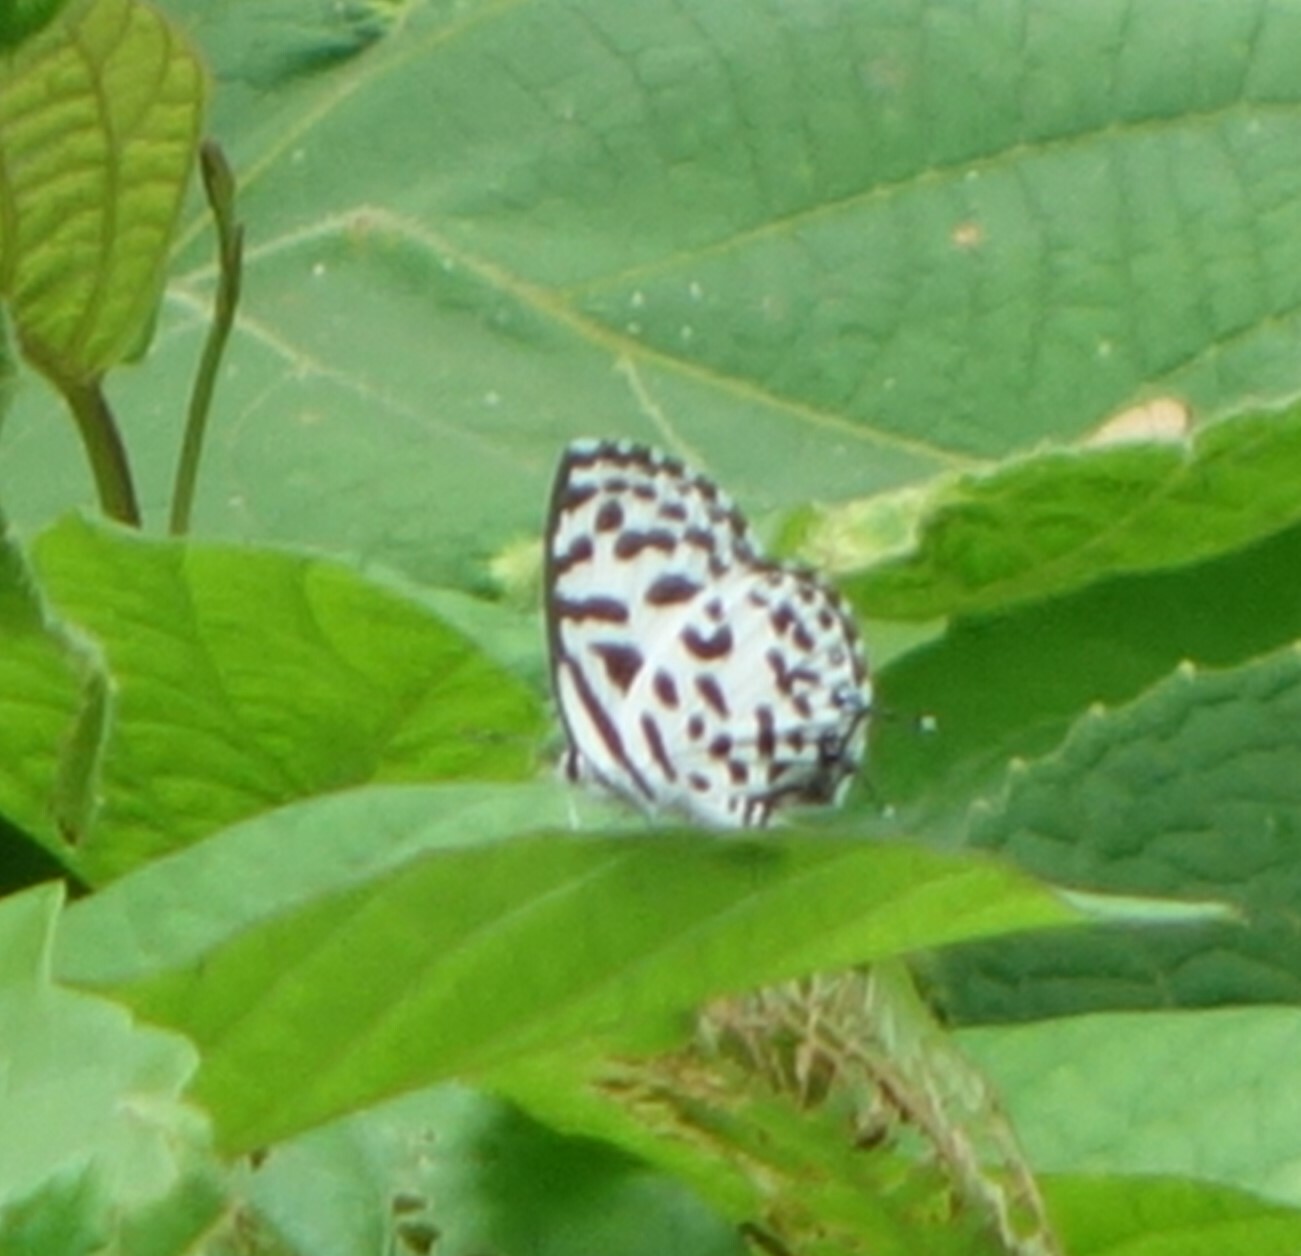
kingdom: Animalia
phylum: Arthropoda
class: Insecta
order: Lepidoptera
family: Lycaenidae
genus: Castalius
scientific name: Castalius rosimon
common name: Common pierrot
